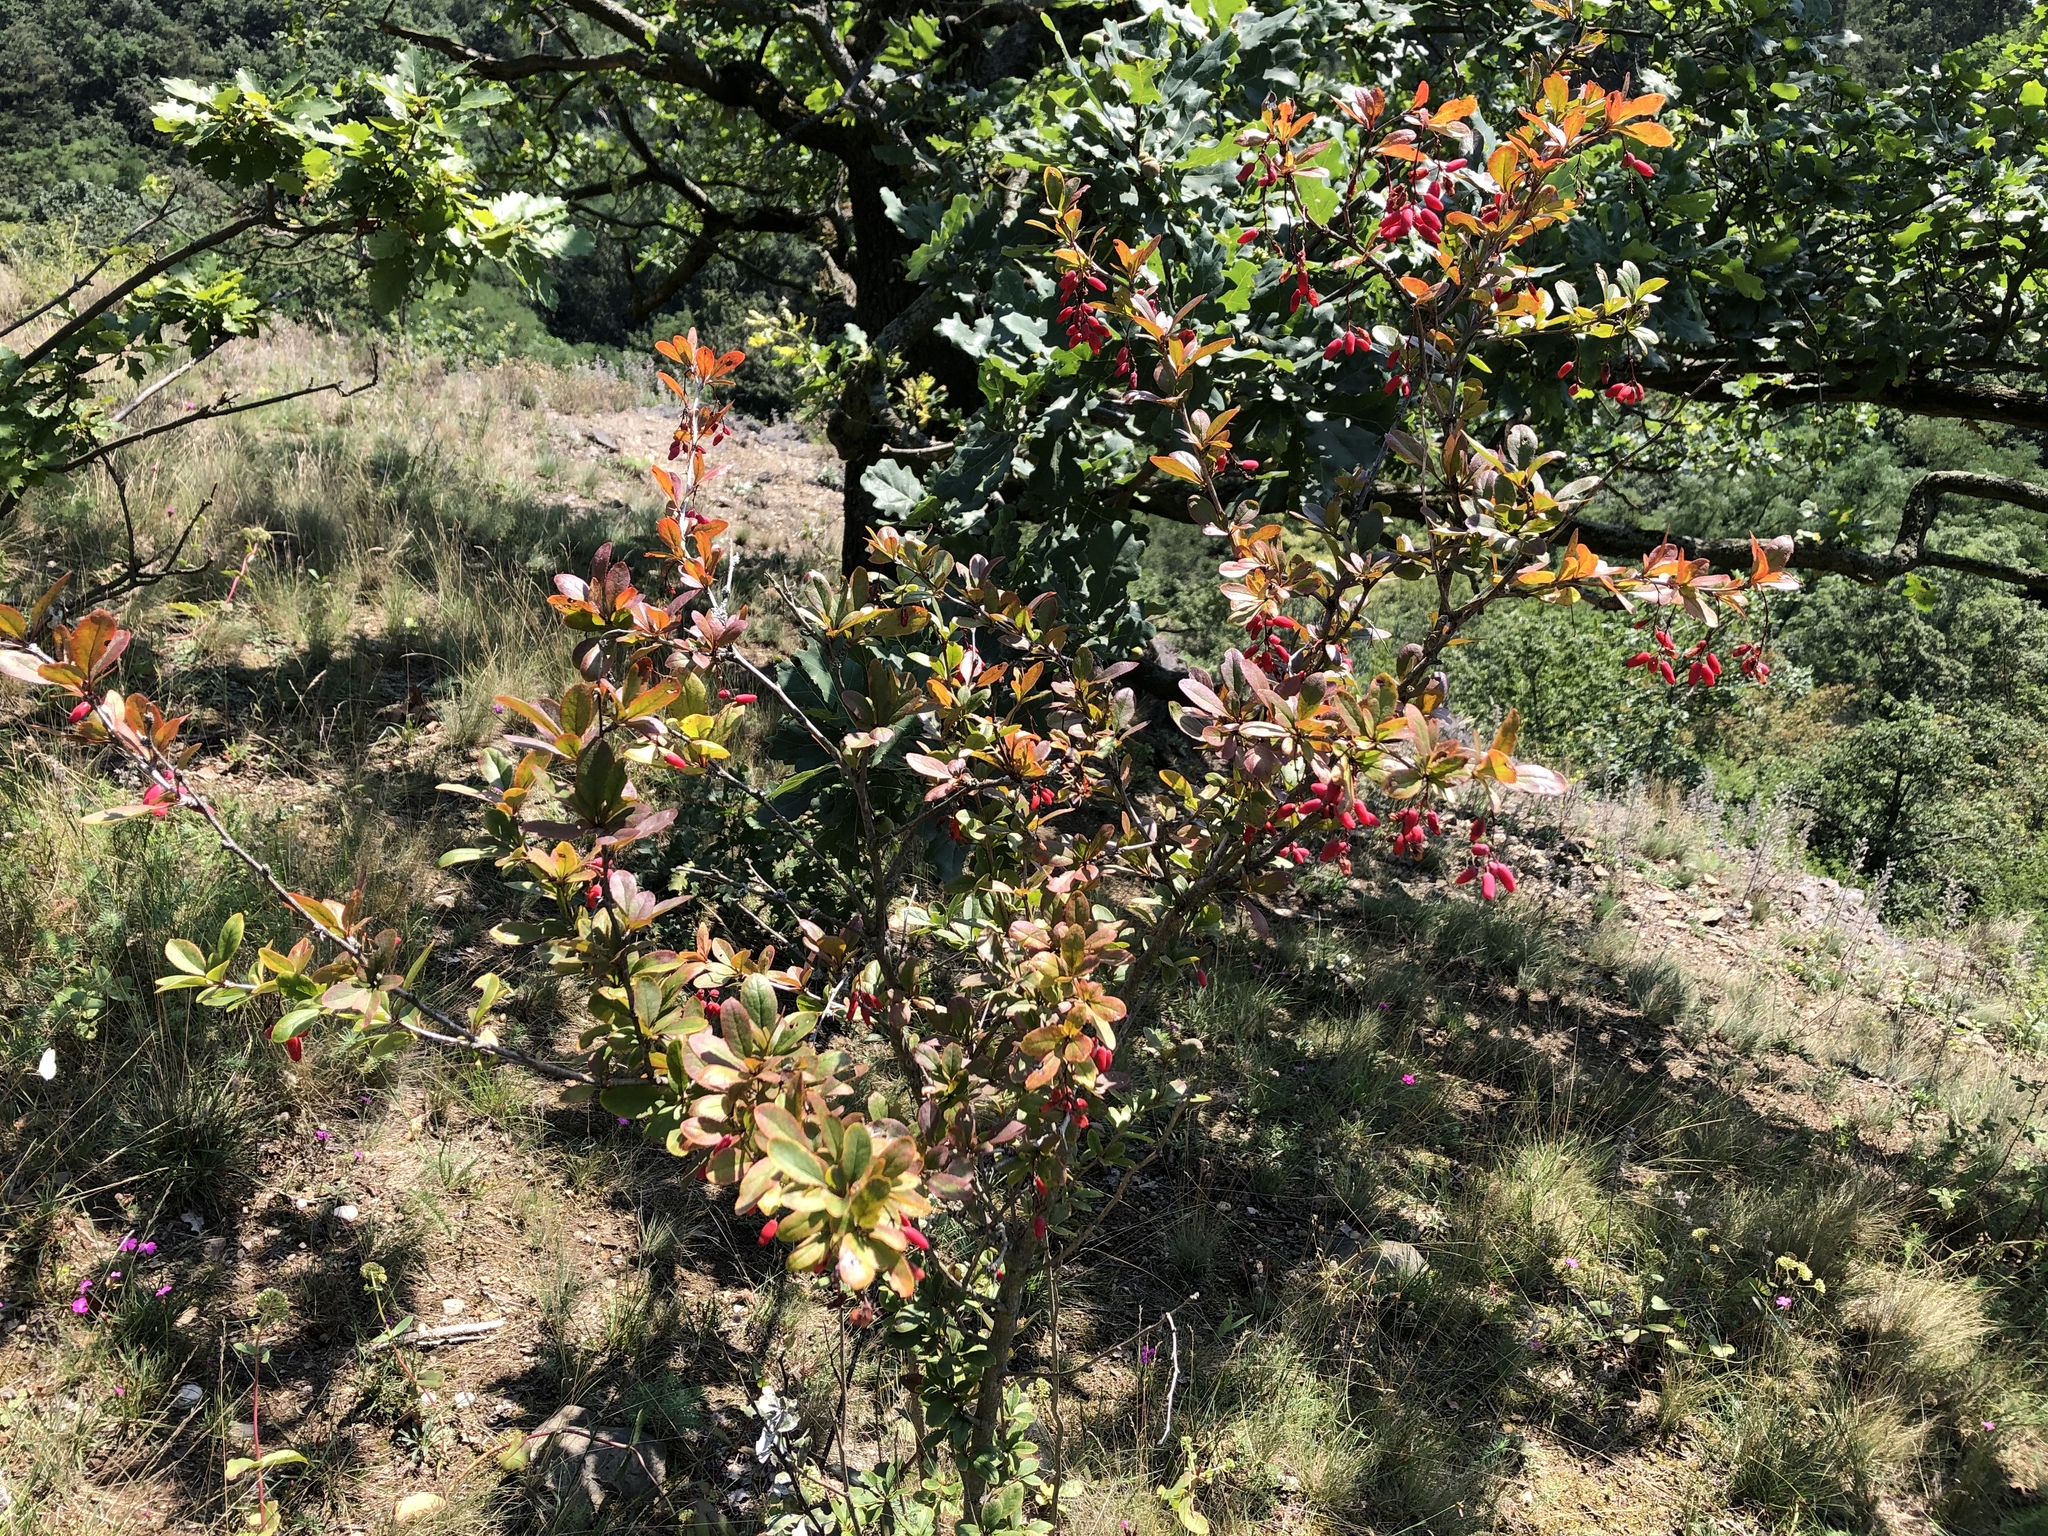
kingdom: Plantae
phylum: Tracheophyta
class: Magnoliopsida
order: Ranunculales
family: Berberidaceae
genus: Berberis
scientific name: Berberis vulgaris
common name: Barberry
